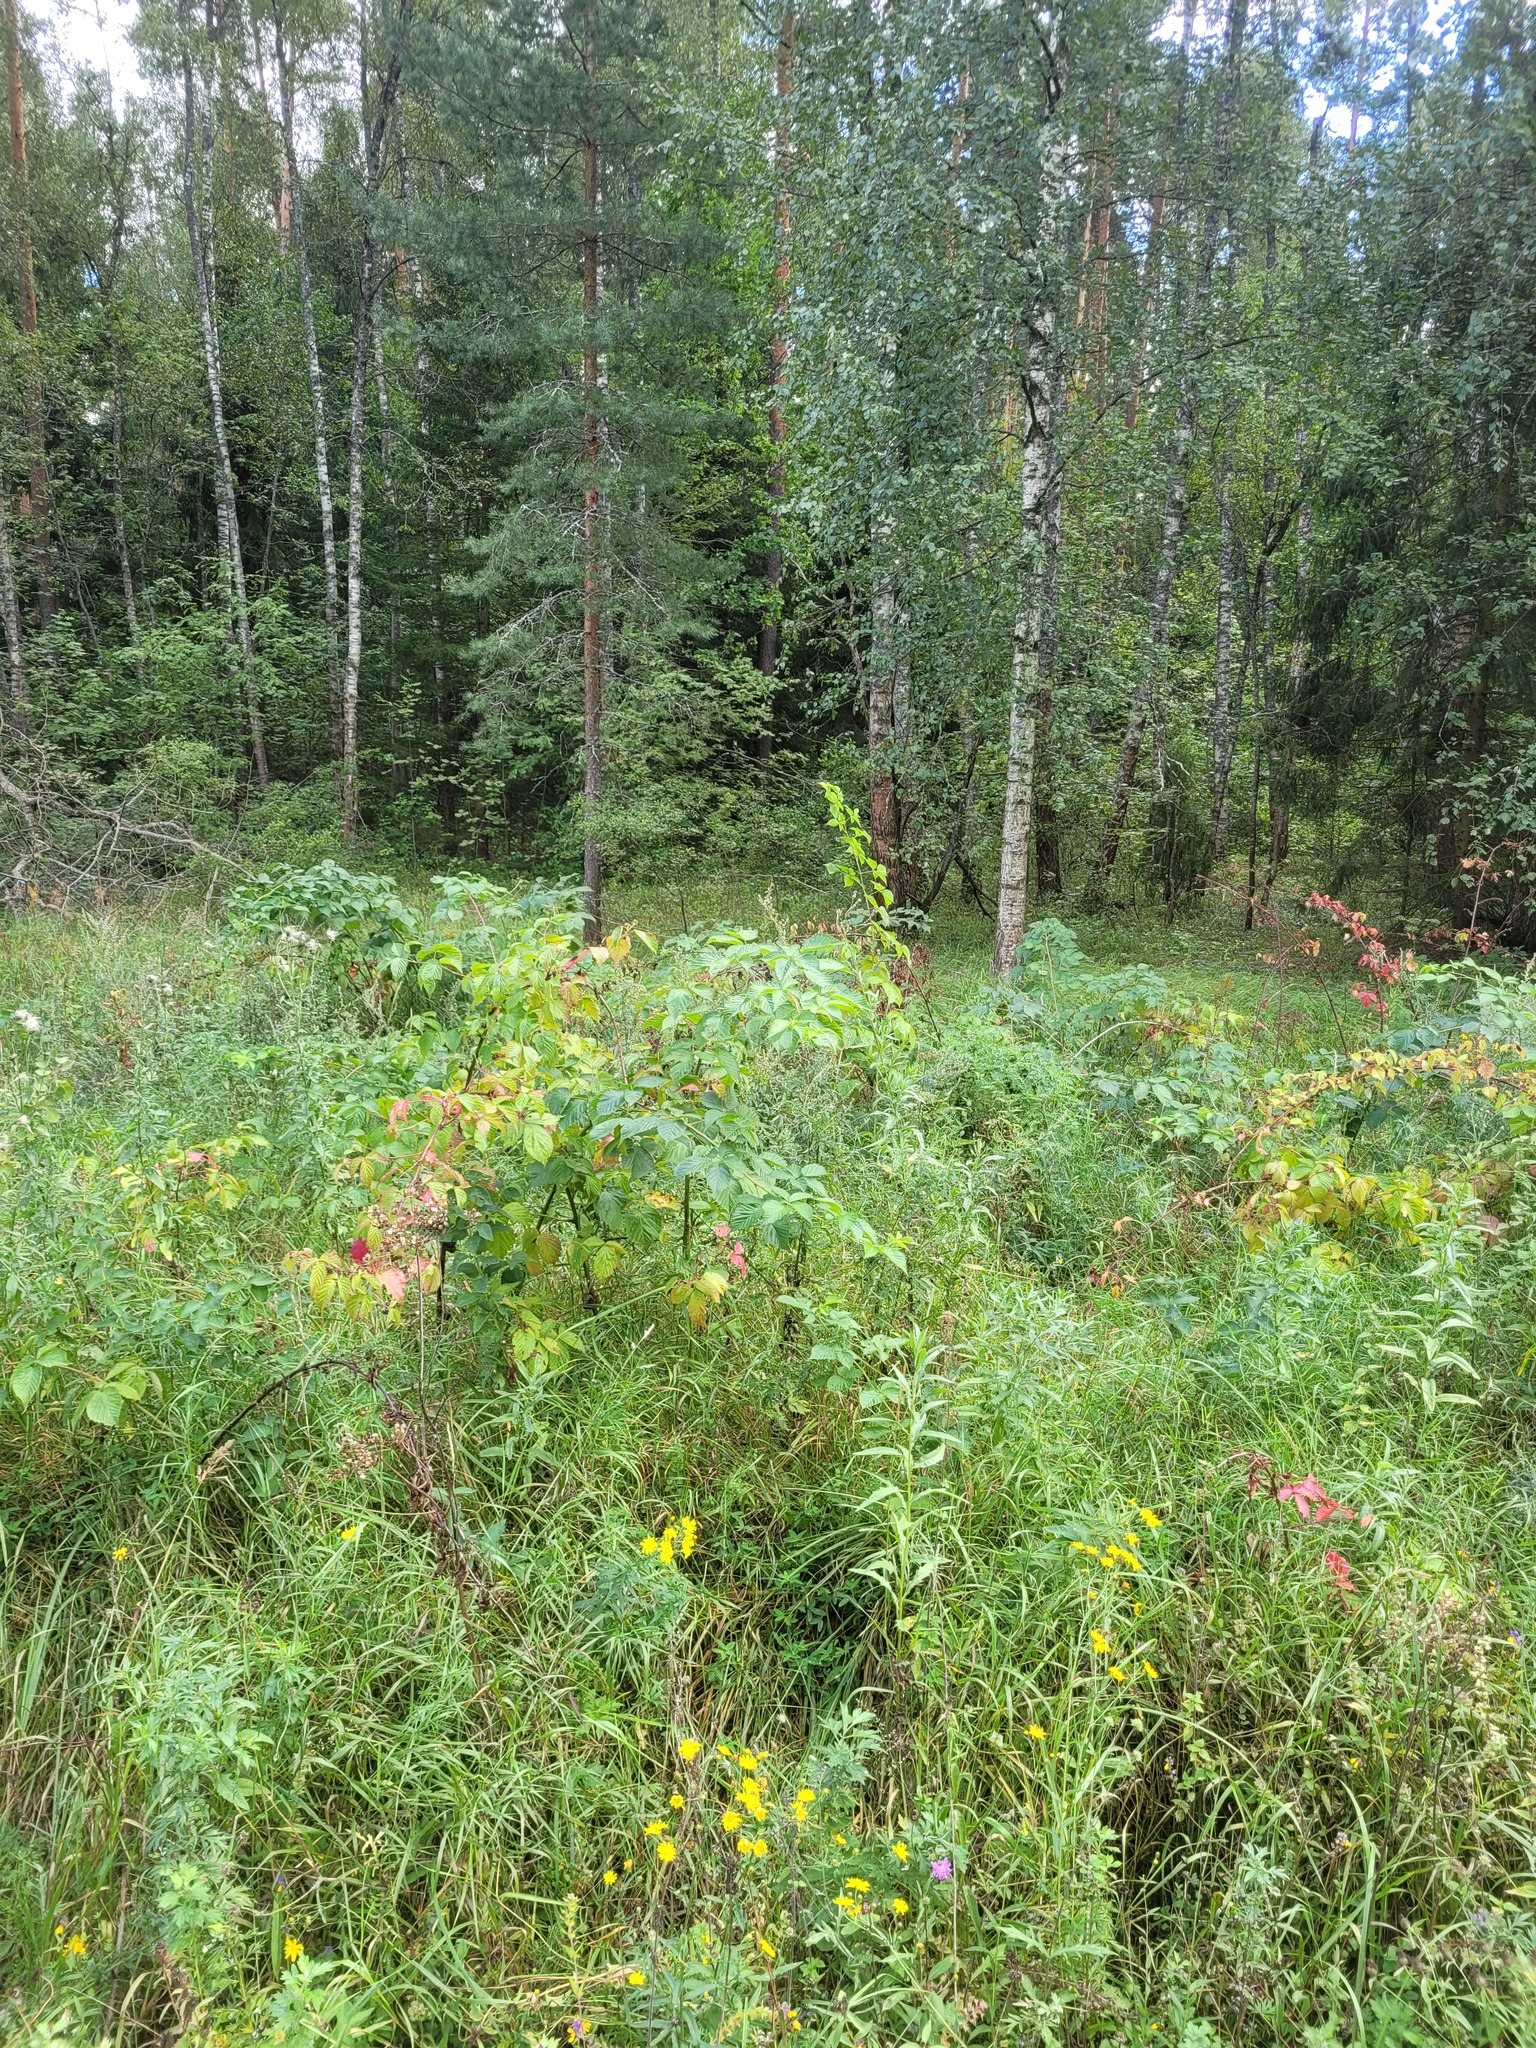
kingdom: Plantae
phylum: Tracheophyta
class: Magnoliopsida
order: Rosales
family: Rosaceae
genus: Rubus
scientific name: Rubus polonicus
